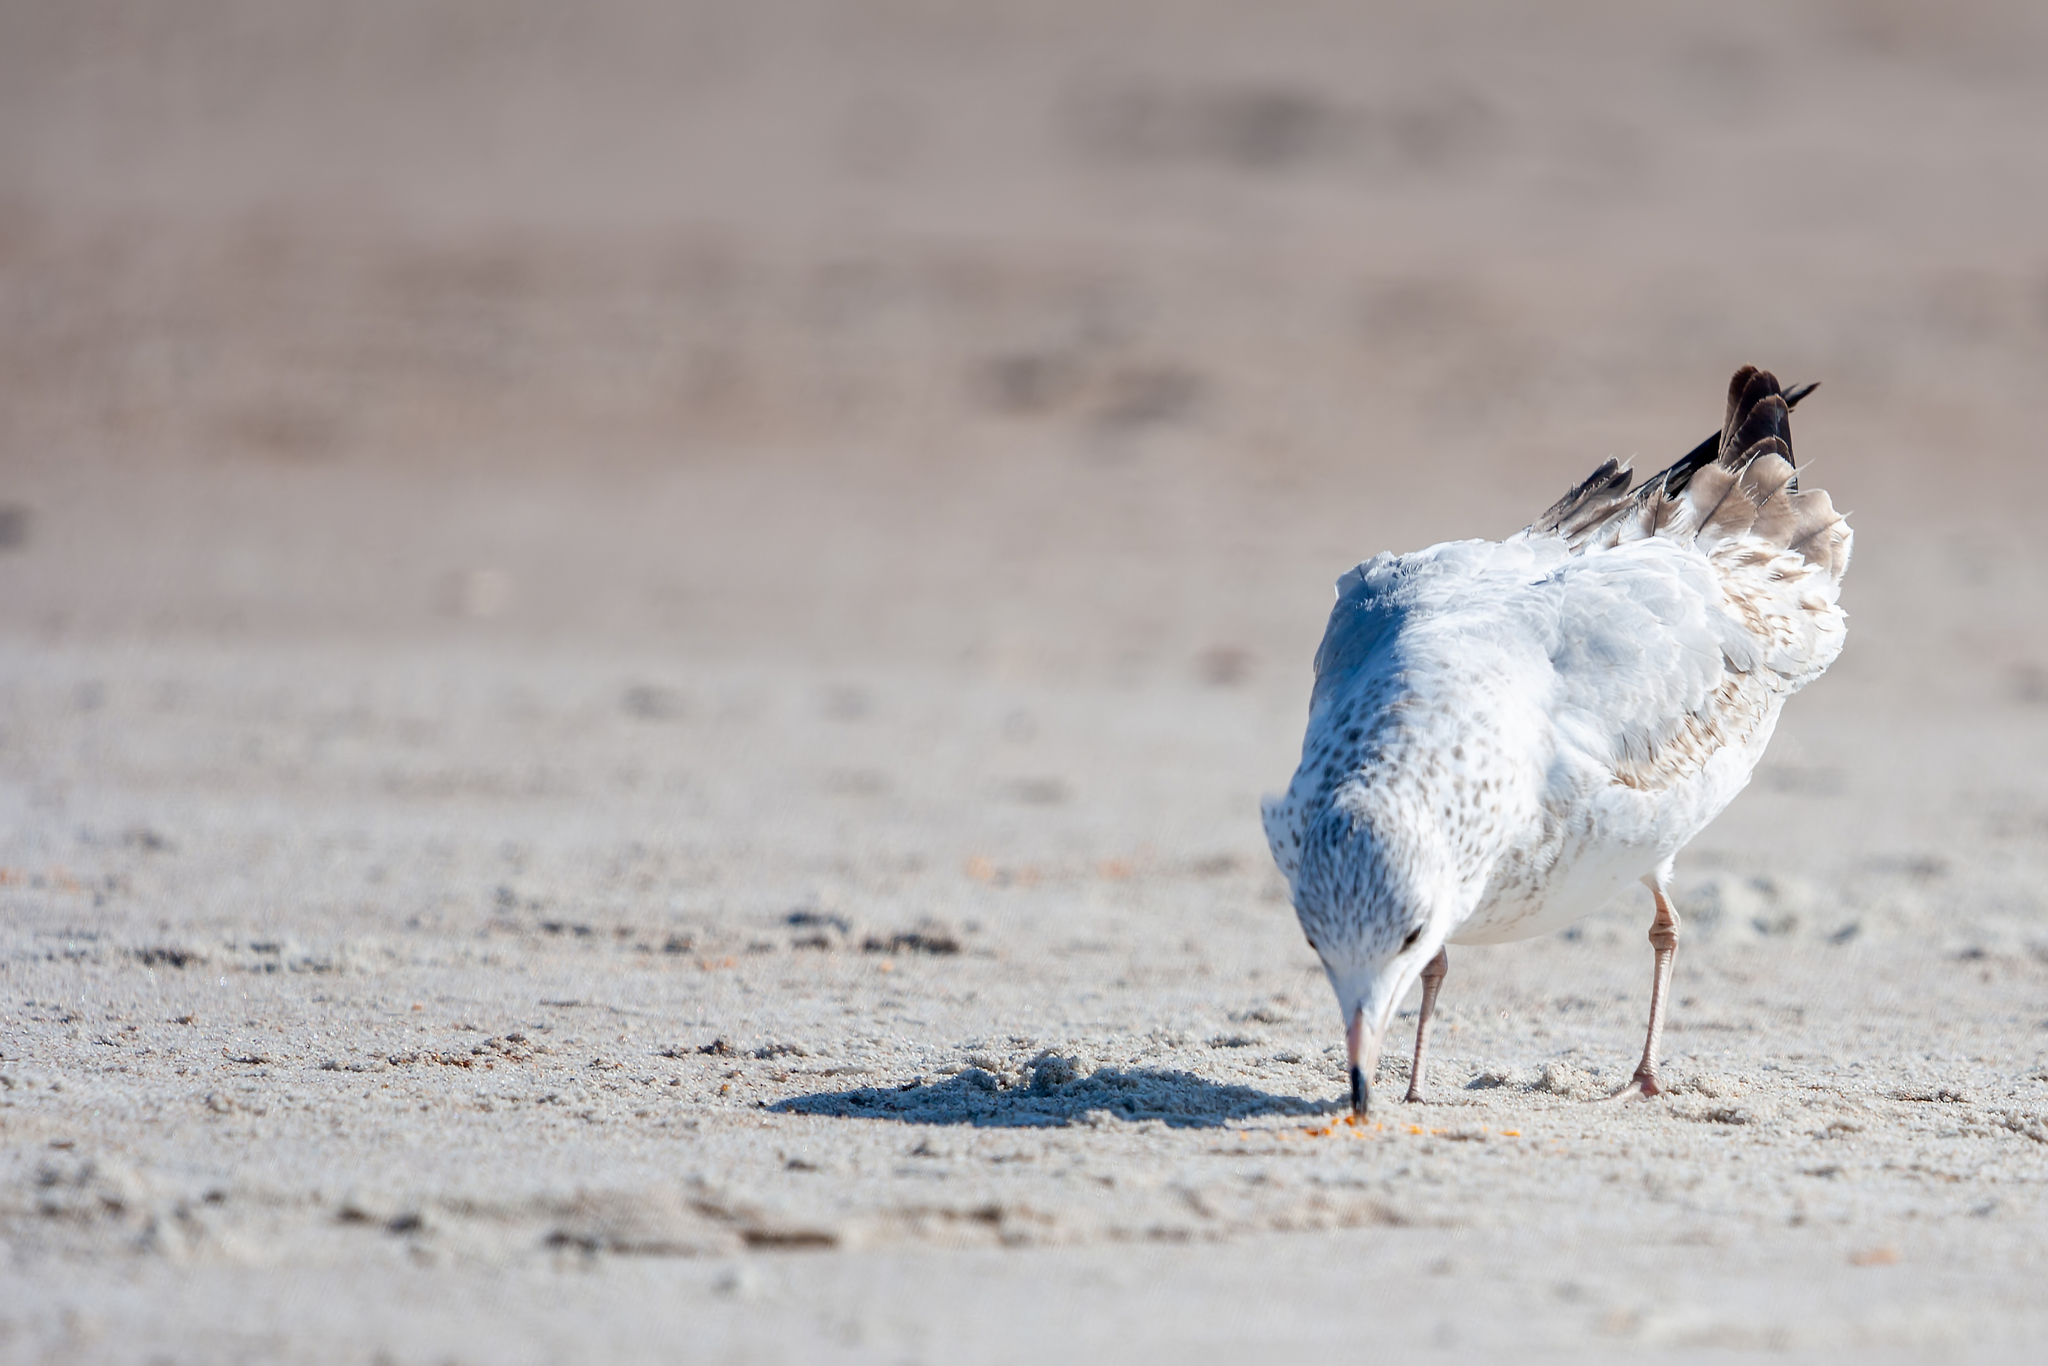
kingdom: Animalia
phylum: Chordata
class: Aves
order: Charadriiformes
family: Laridae
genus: Larus
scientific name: Larus delawarensis
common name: Ring-billed gull
